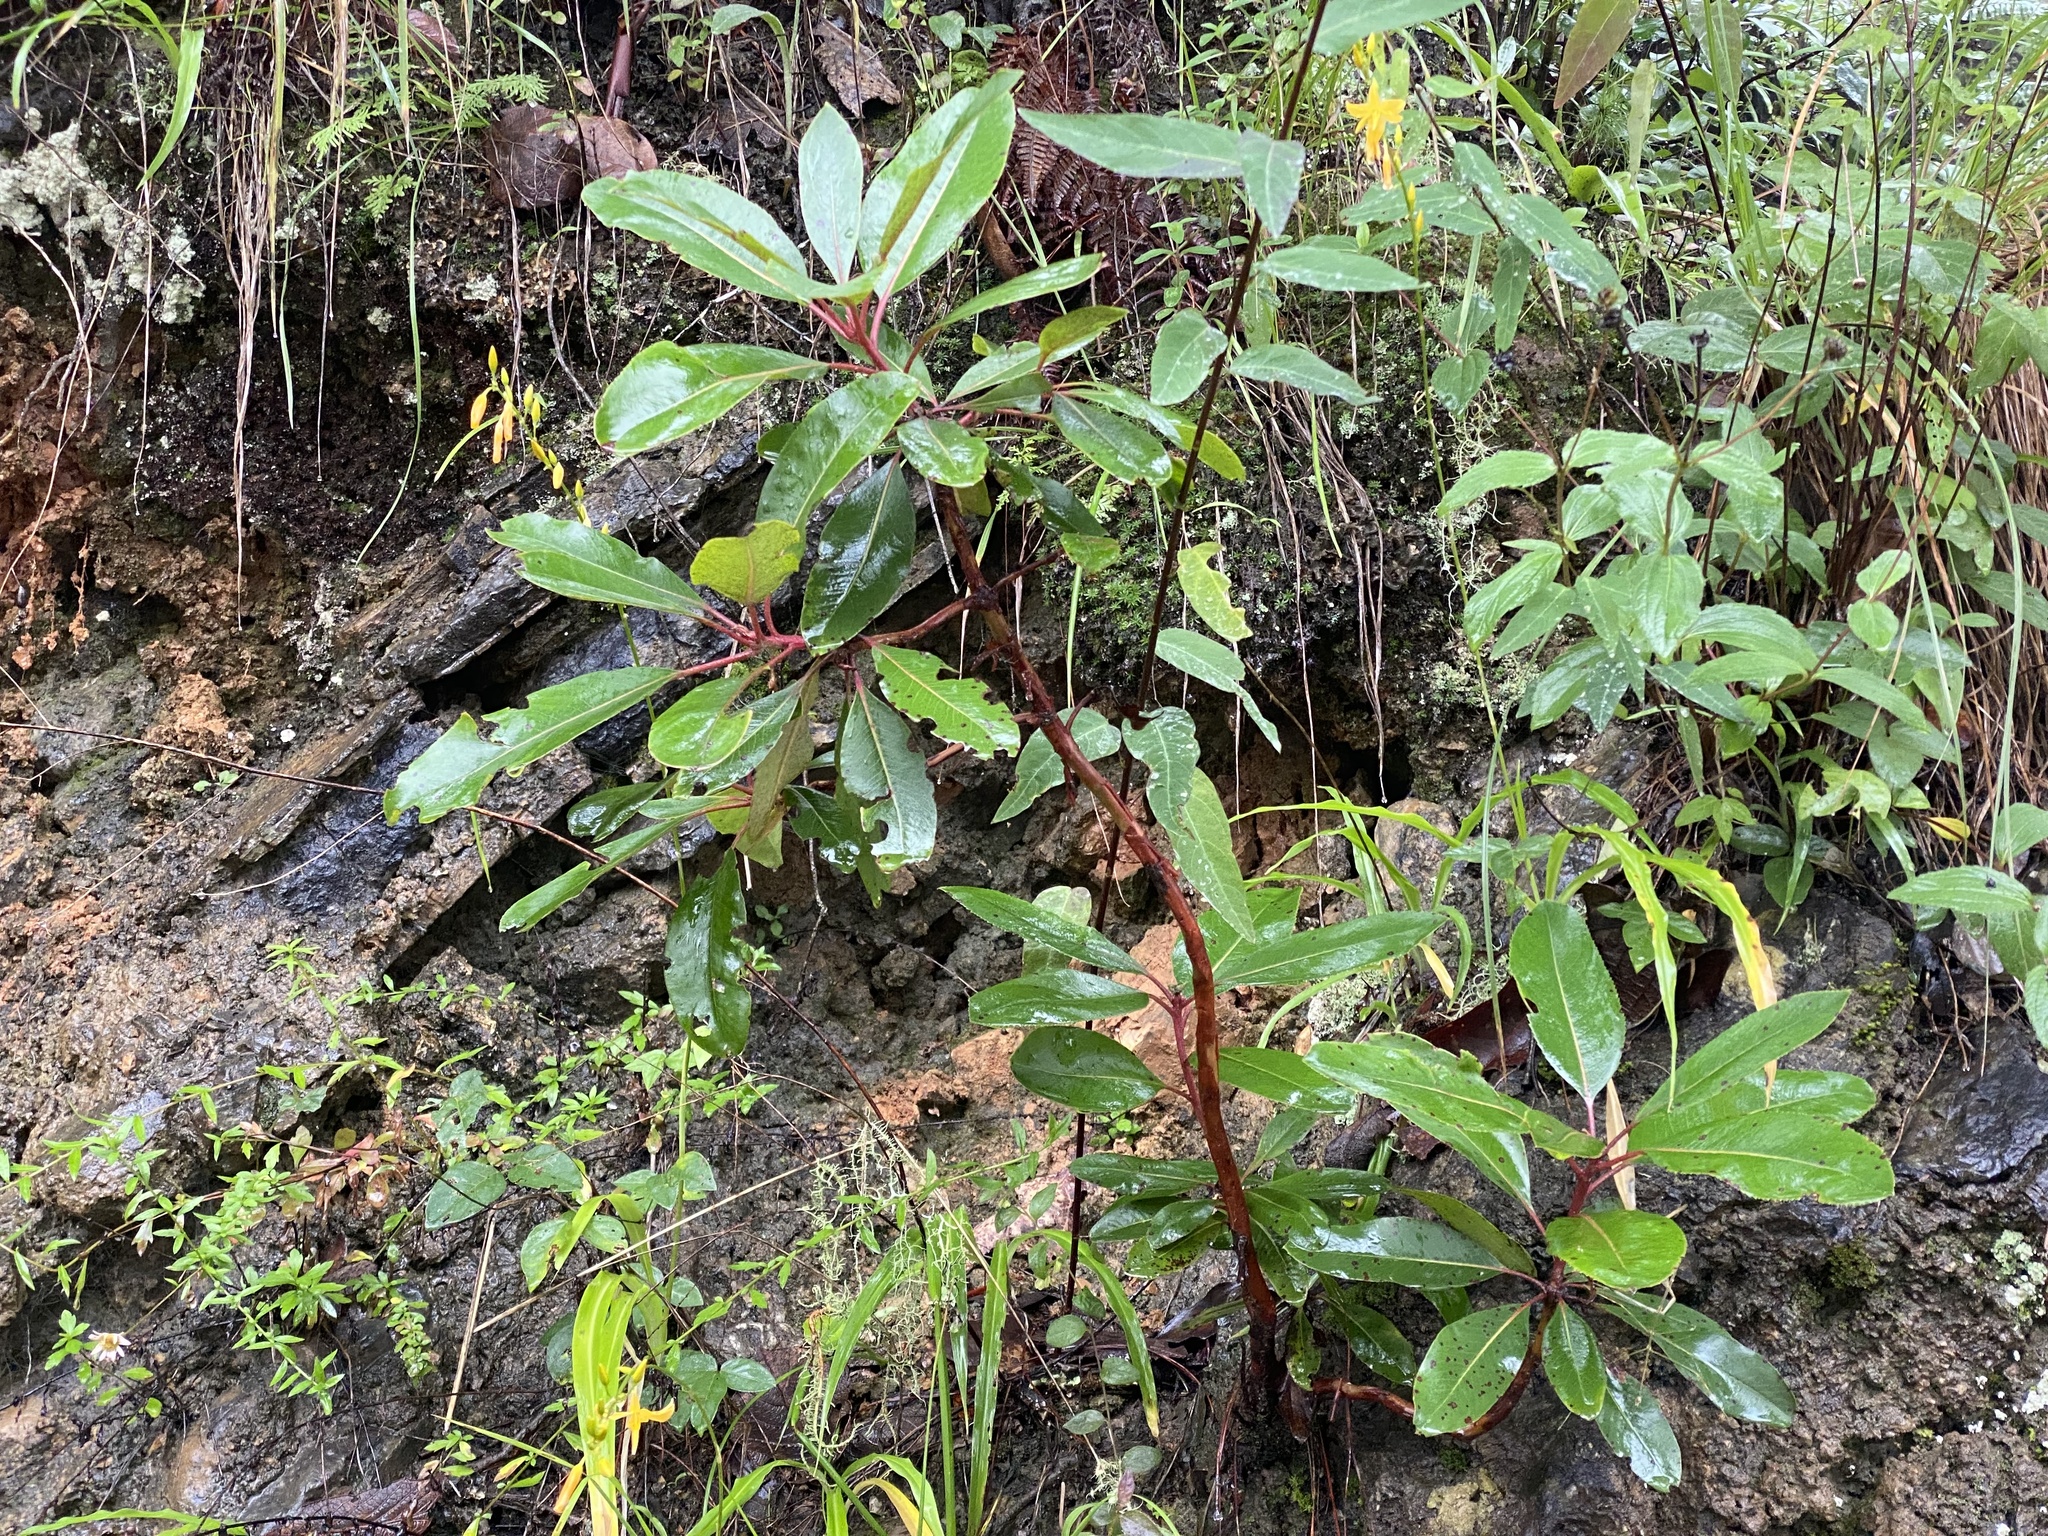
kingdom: Plantae
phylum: Tracheophyta
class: Magnoliopsida
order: Ericales
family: Ericaceae
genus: Arbutus
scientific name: Arbutus xalapensis
